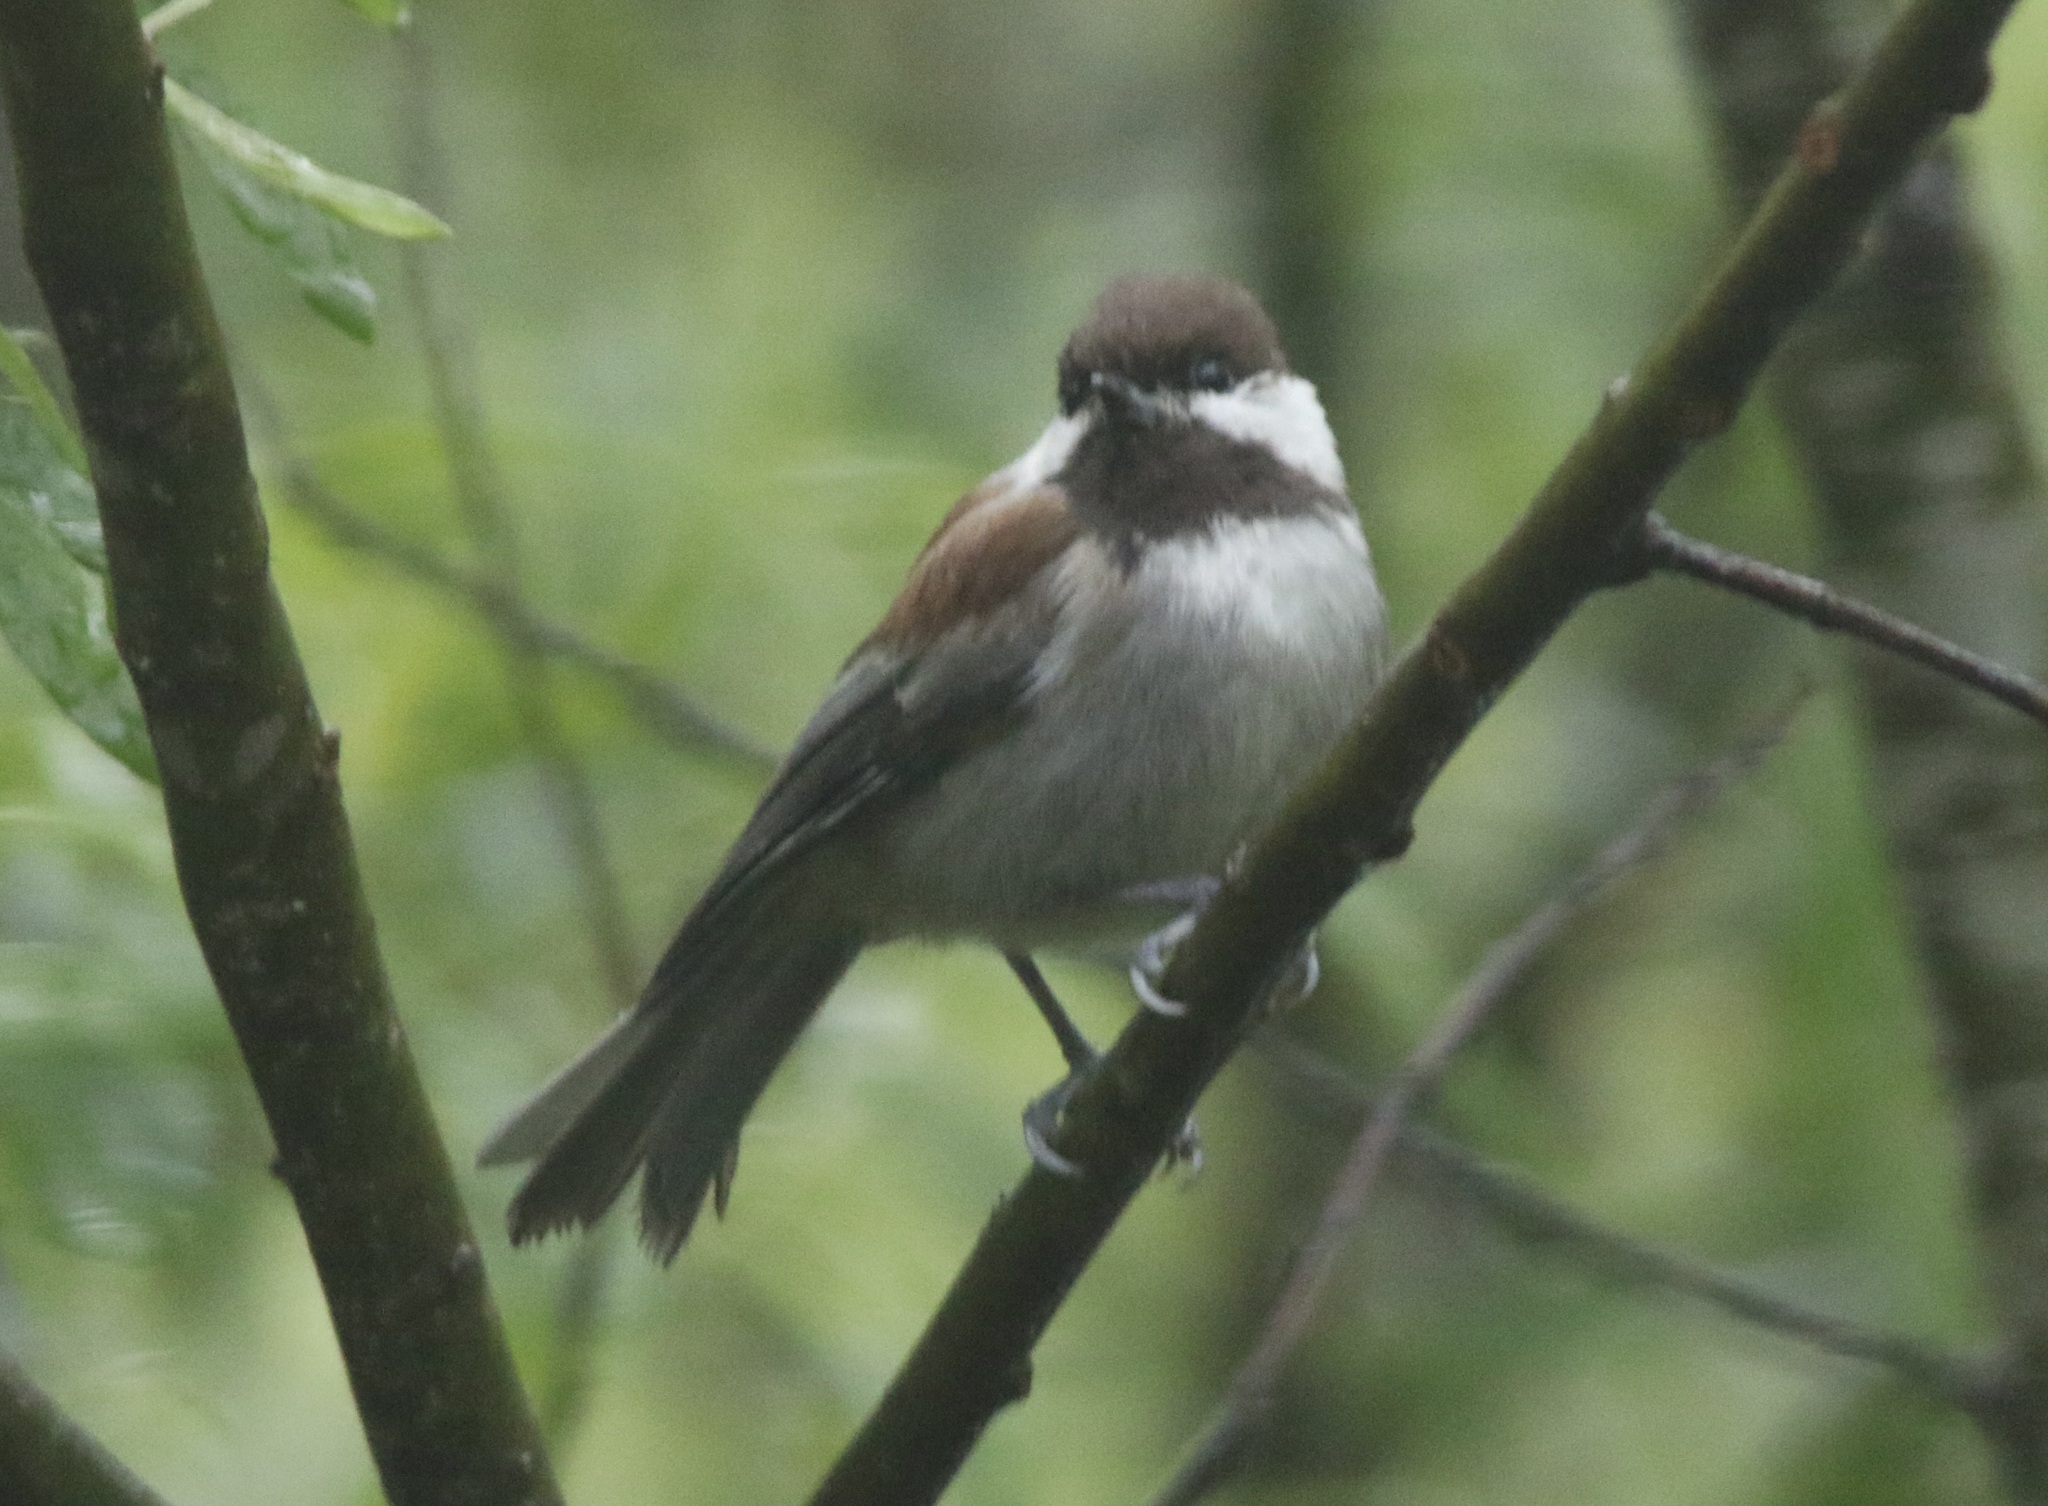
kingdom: Animalia
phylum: Chordata
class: Aves
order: Passeriformes
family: Paridae
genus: Poecile
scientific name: Poecile rufescens
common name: Chestnut-backed chickadee
